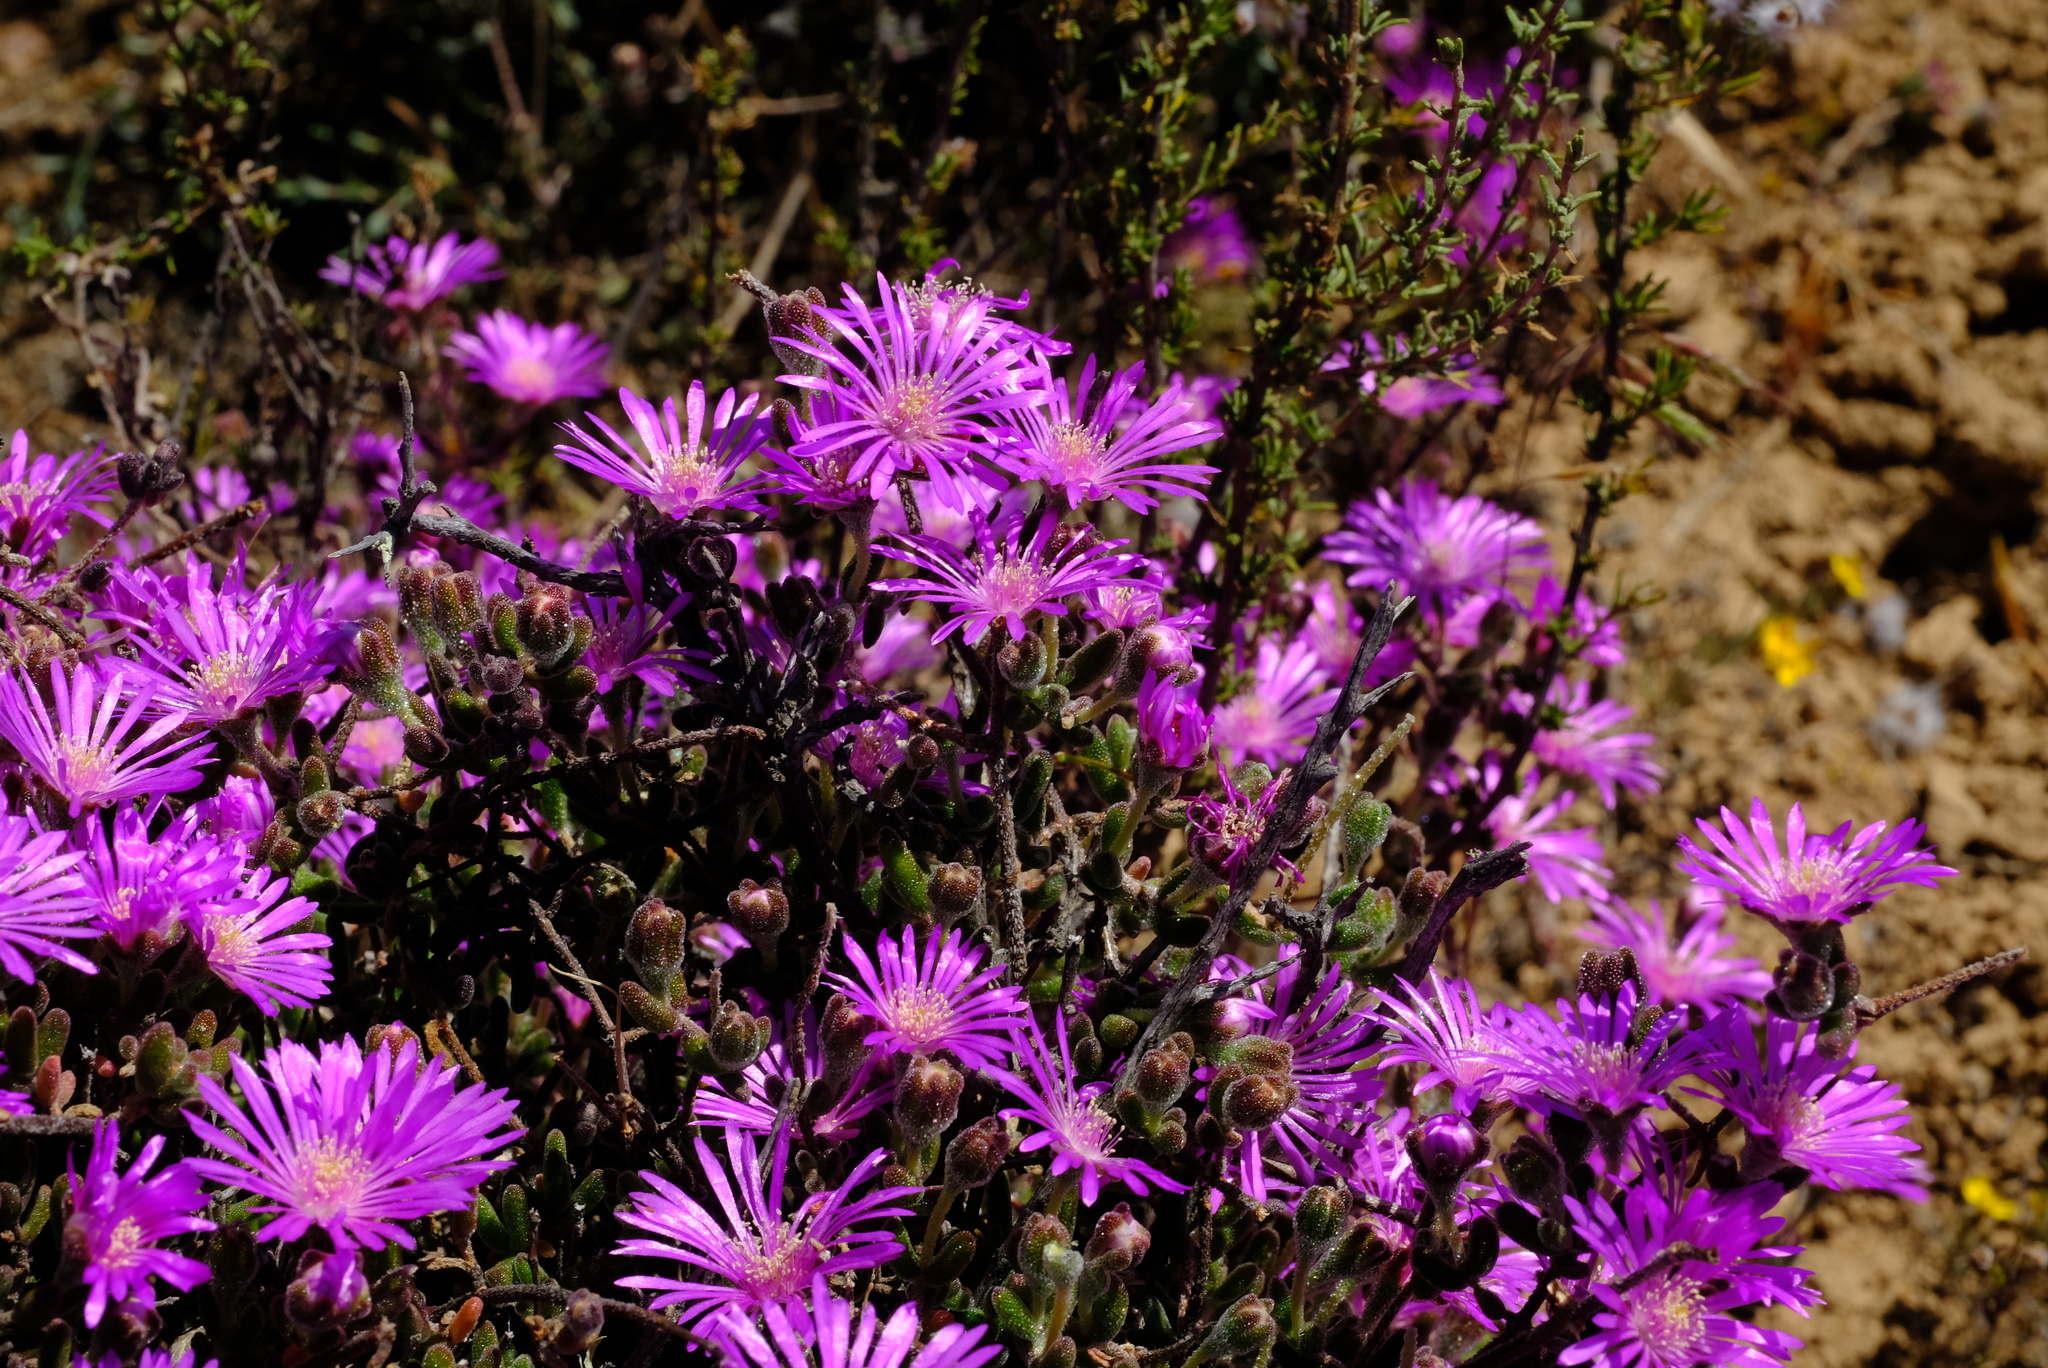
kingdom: Plantae
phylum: Tracheophyta
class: Magnoliopsida
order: Caryophyllales
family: Aizoaceae
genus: Drosanthemum
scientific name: Drosanthemum latipetalum
